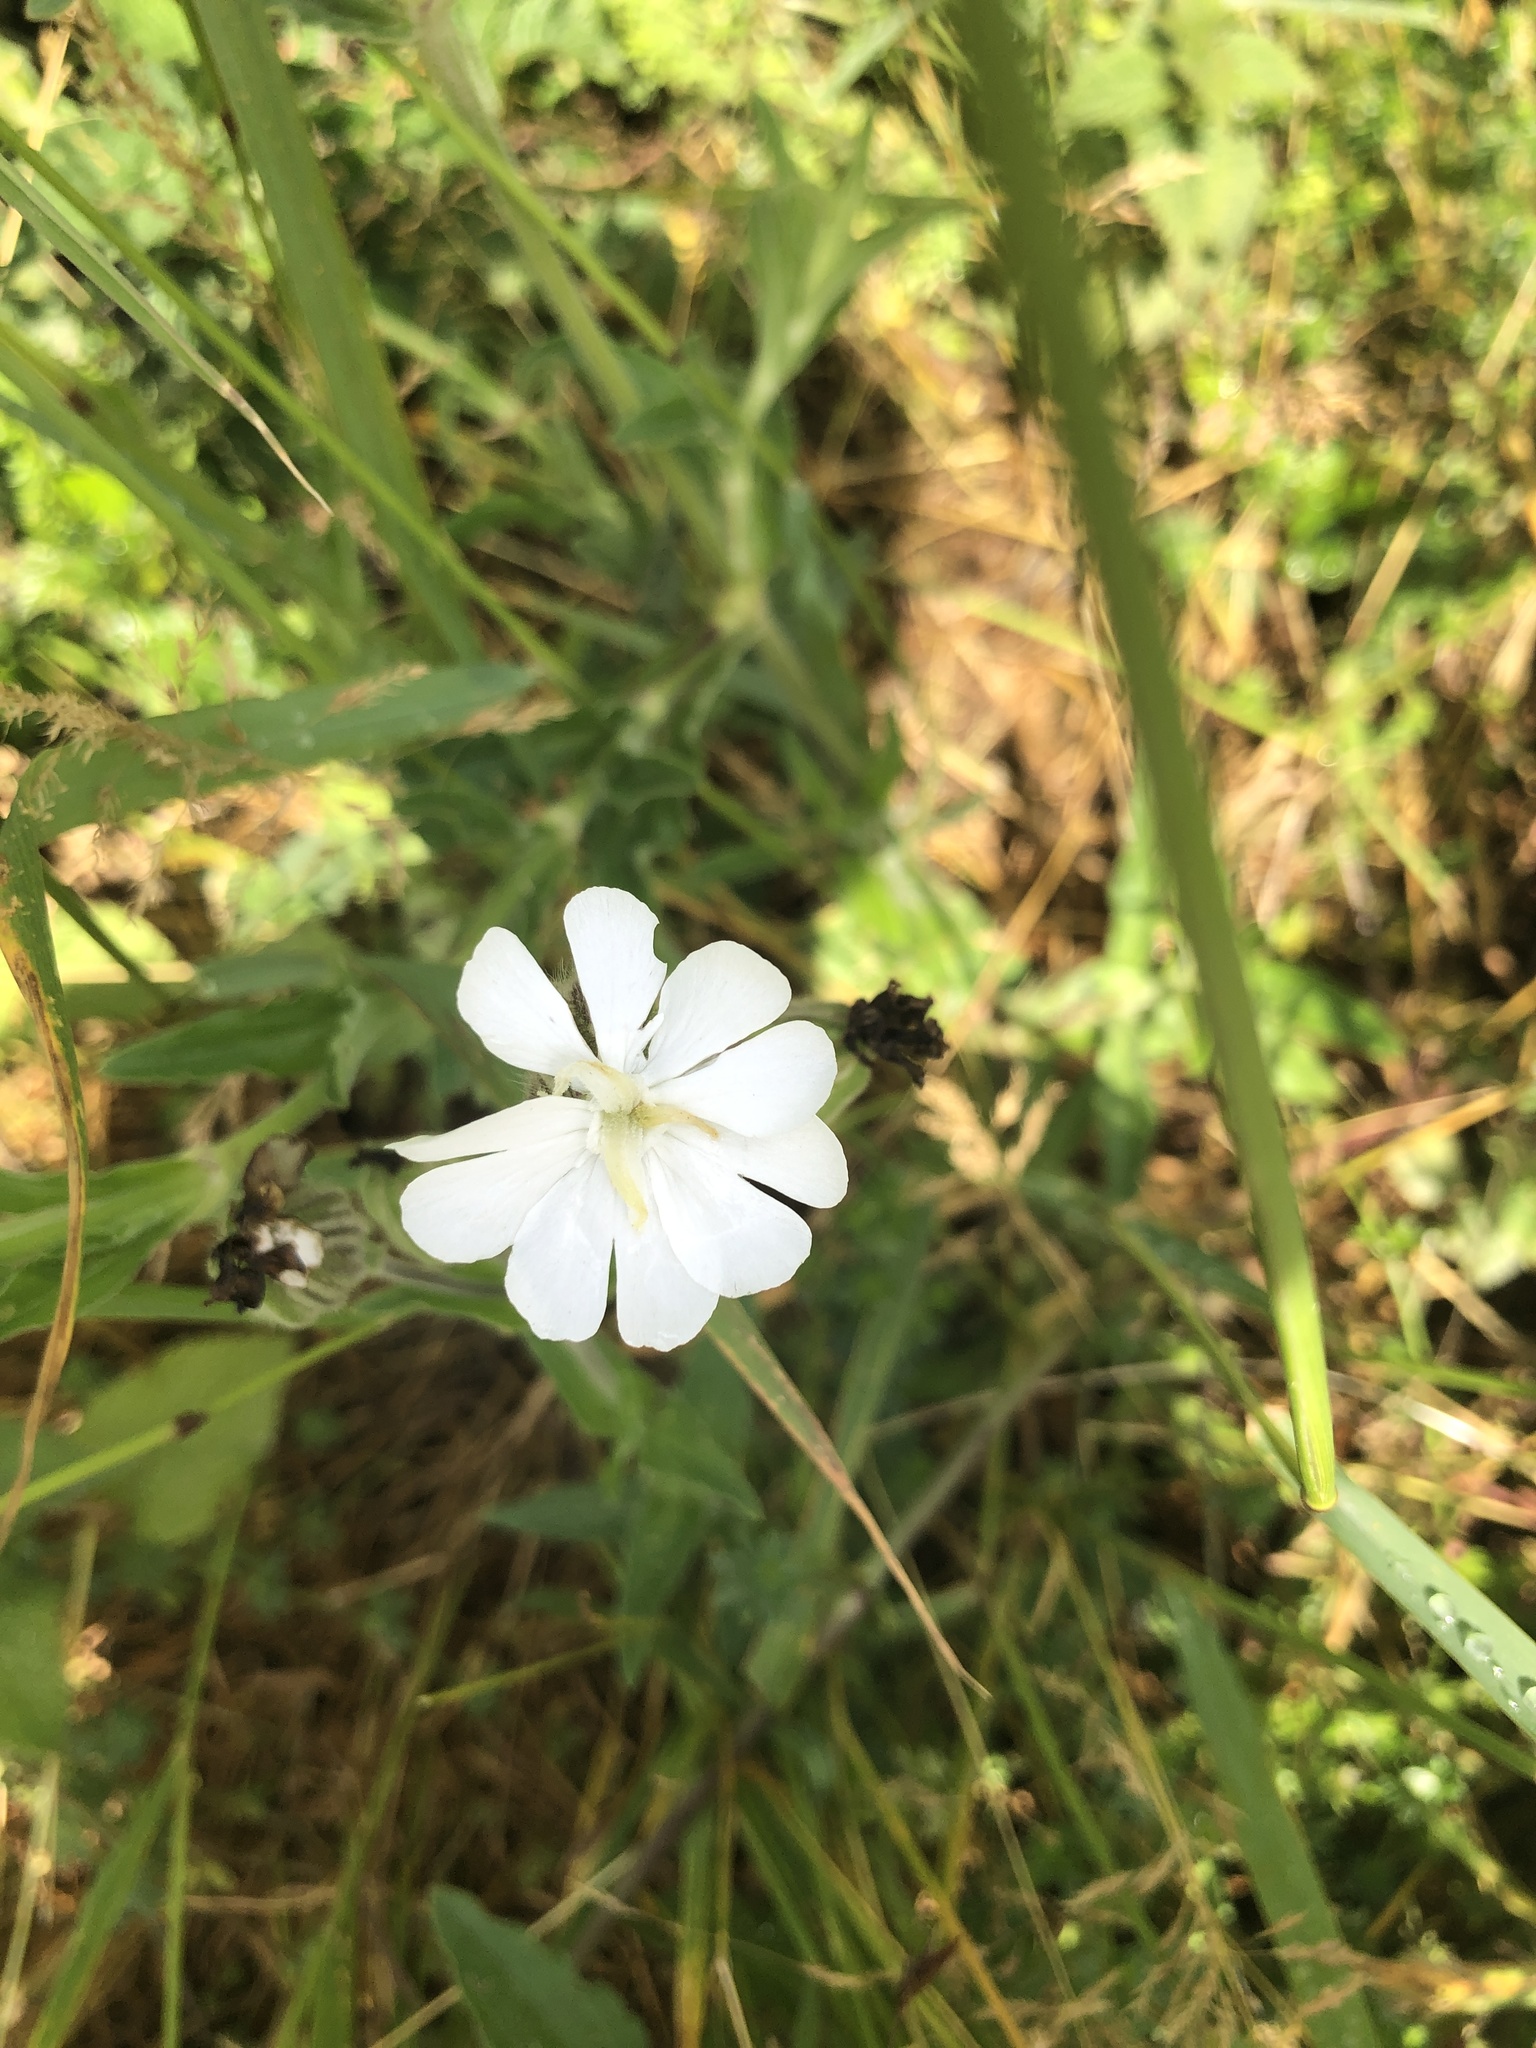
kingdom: Plantae
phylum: Tracheophyta
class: Magnoliopsida
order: Caryophyllales
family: Caryophyllaceae
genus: Silene
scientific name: Silene latifolia
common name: White campion
